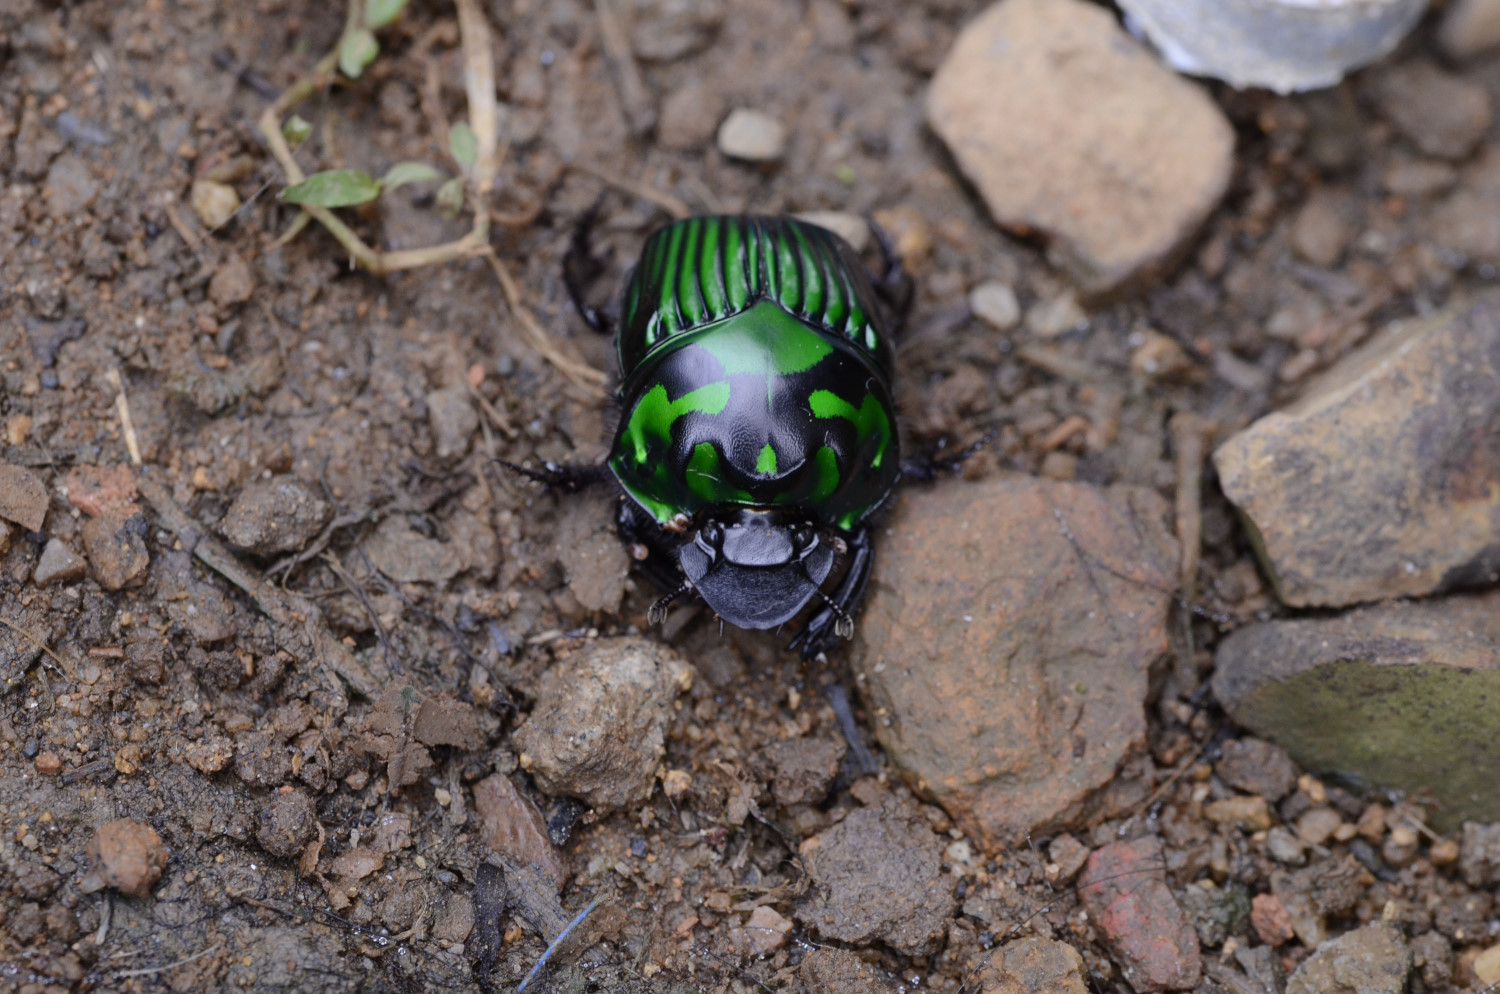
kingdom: Animalia
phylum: Arthropoda
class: Insecta
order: Coleoptera
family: Scarabaeidae
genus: Oxysternon
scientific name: Oxysternon conspicillatum
